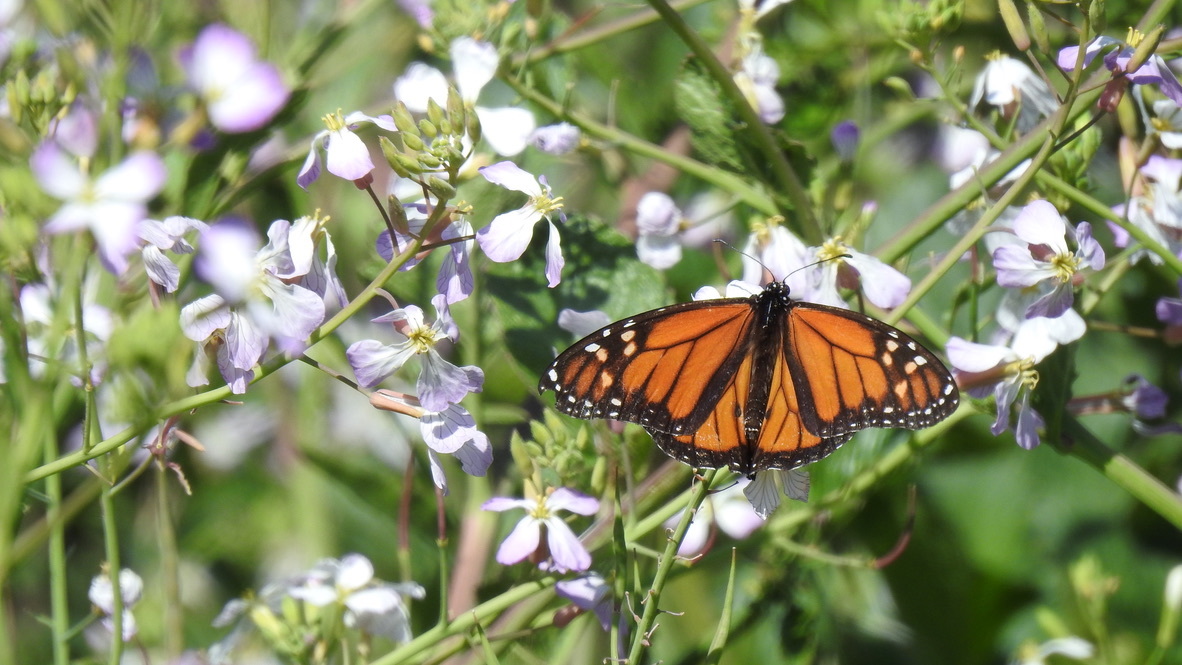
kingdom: Animalia
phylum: Arthropoda
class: Insecta
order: Lepidoptera
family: Nymphalidae
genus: Danaus
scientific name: Danaus plexippus
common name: Monarch
